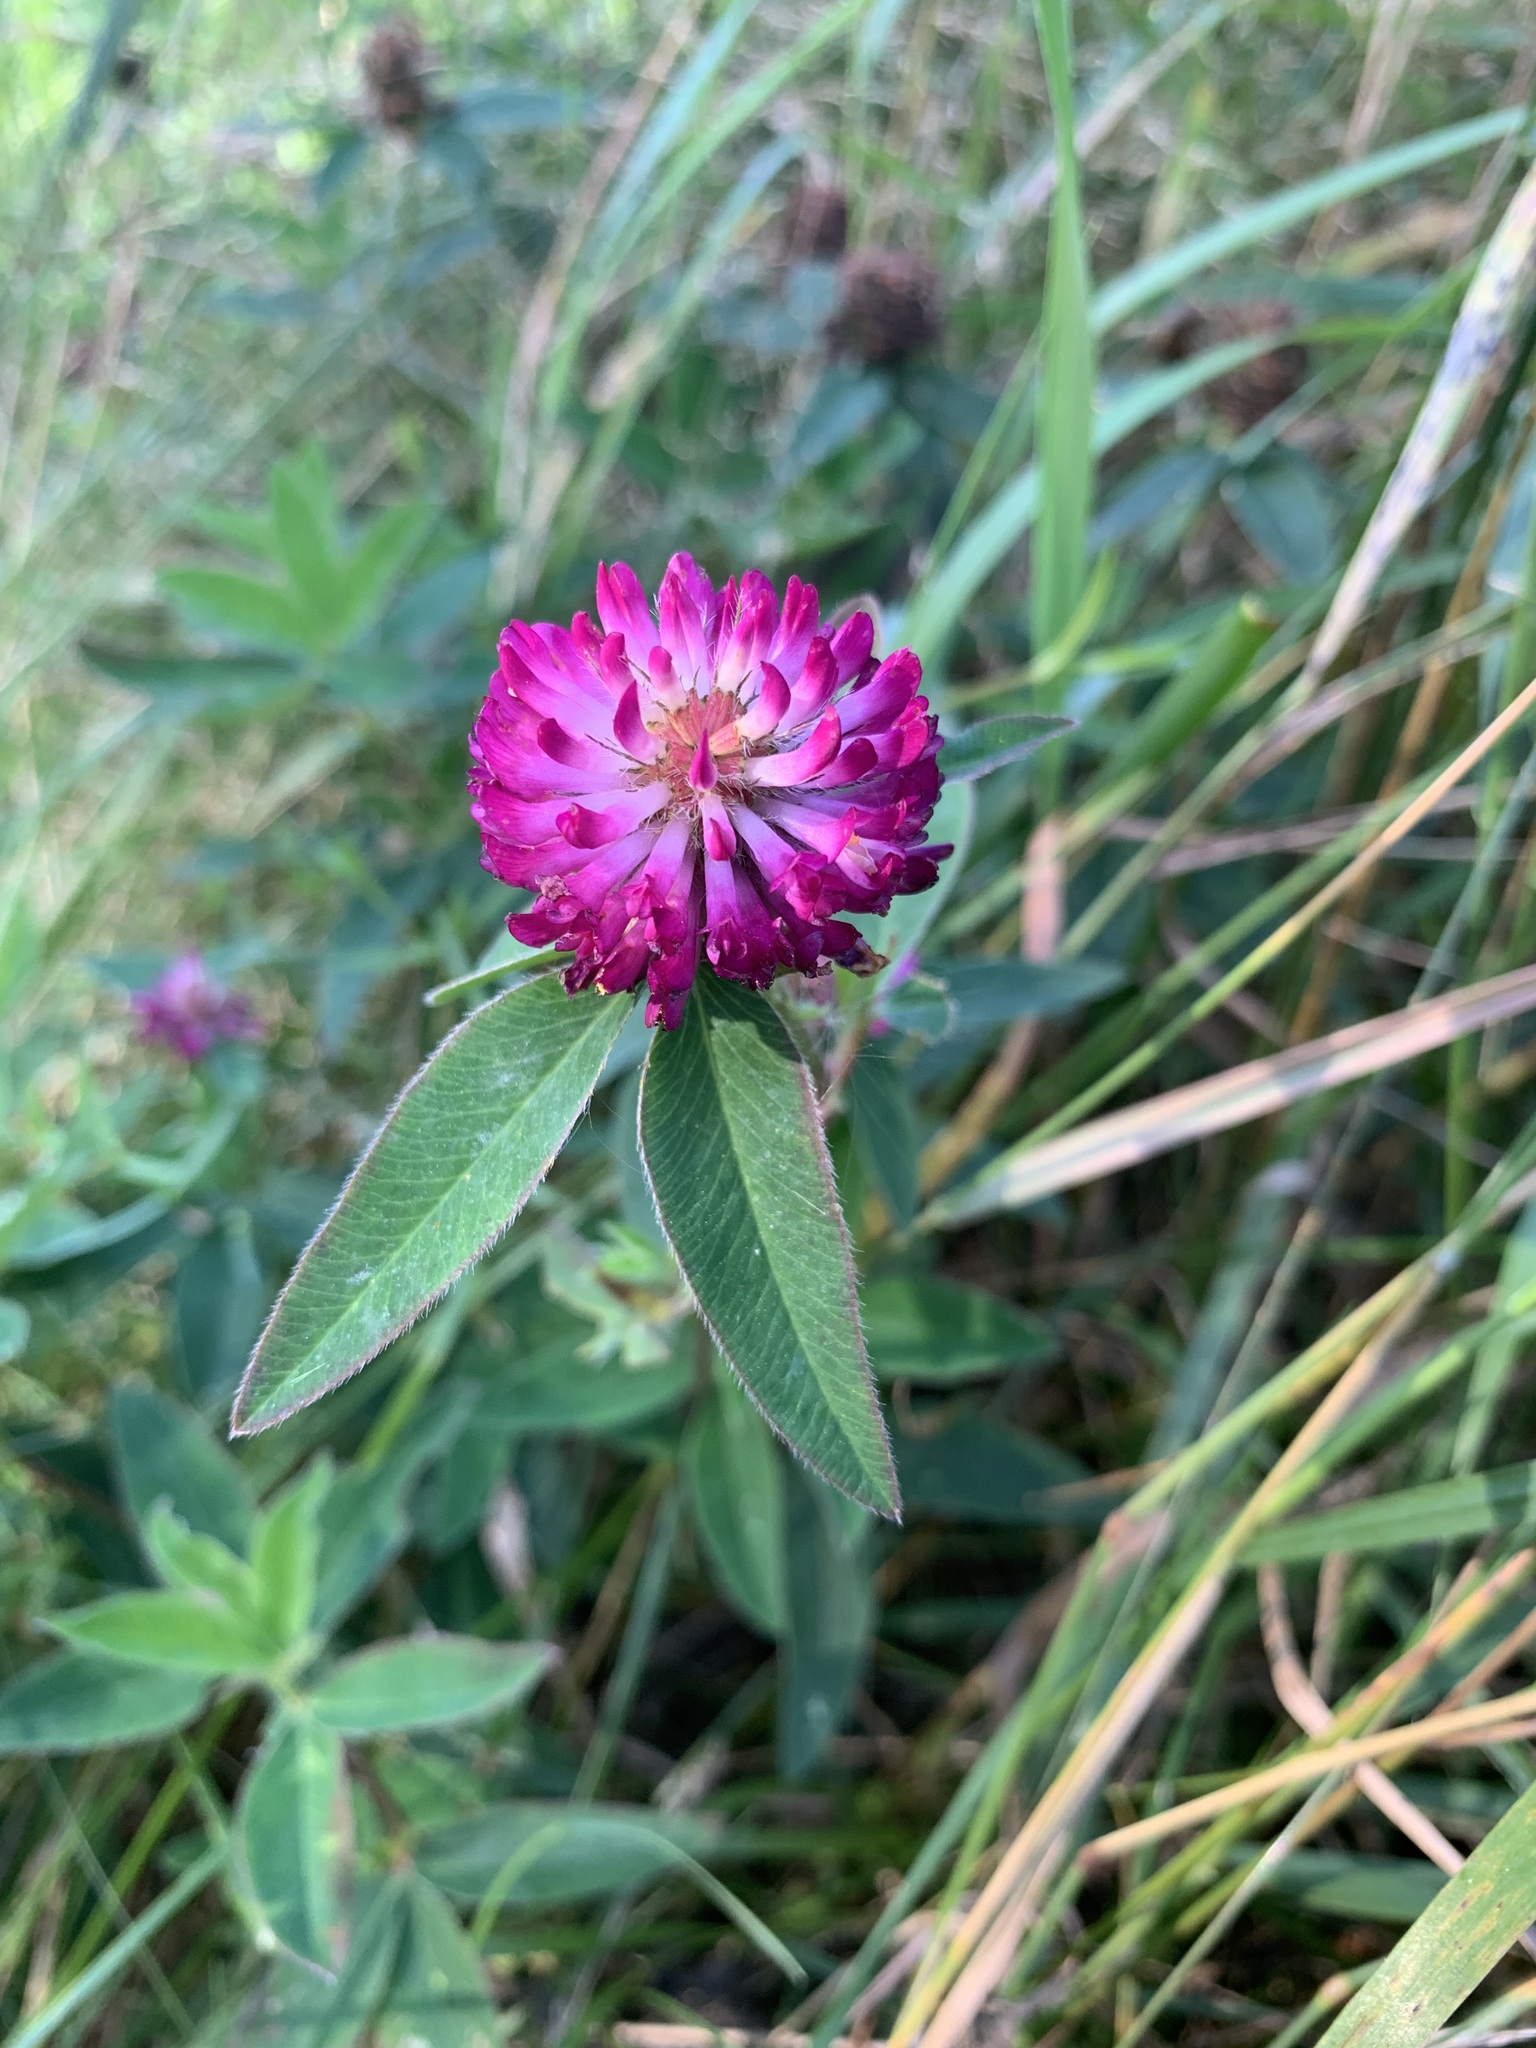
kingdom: Plantae
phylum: Tracheophyta
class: Magnoliopsida
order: Fabales
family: Fabaceae
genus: Trifolium
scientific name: Trifolium medium
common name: Zigzag clover
